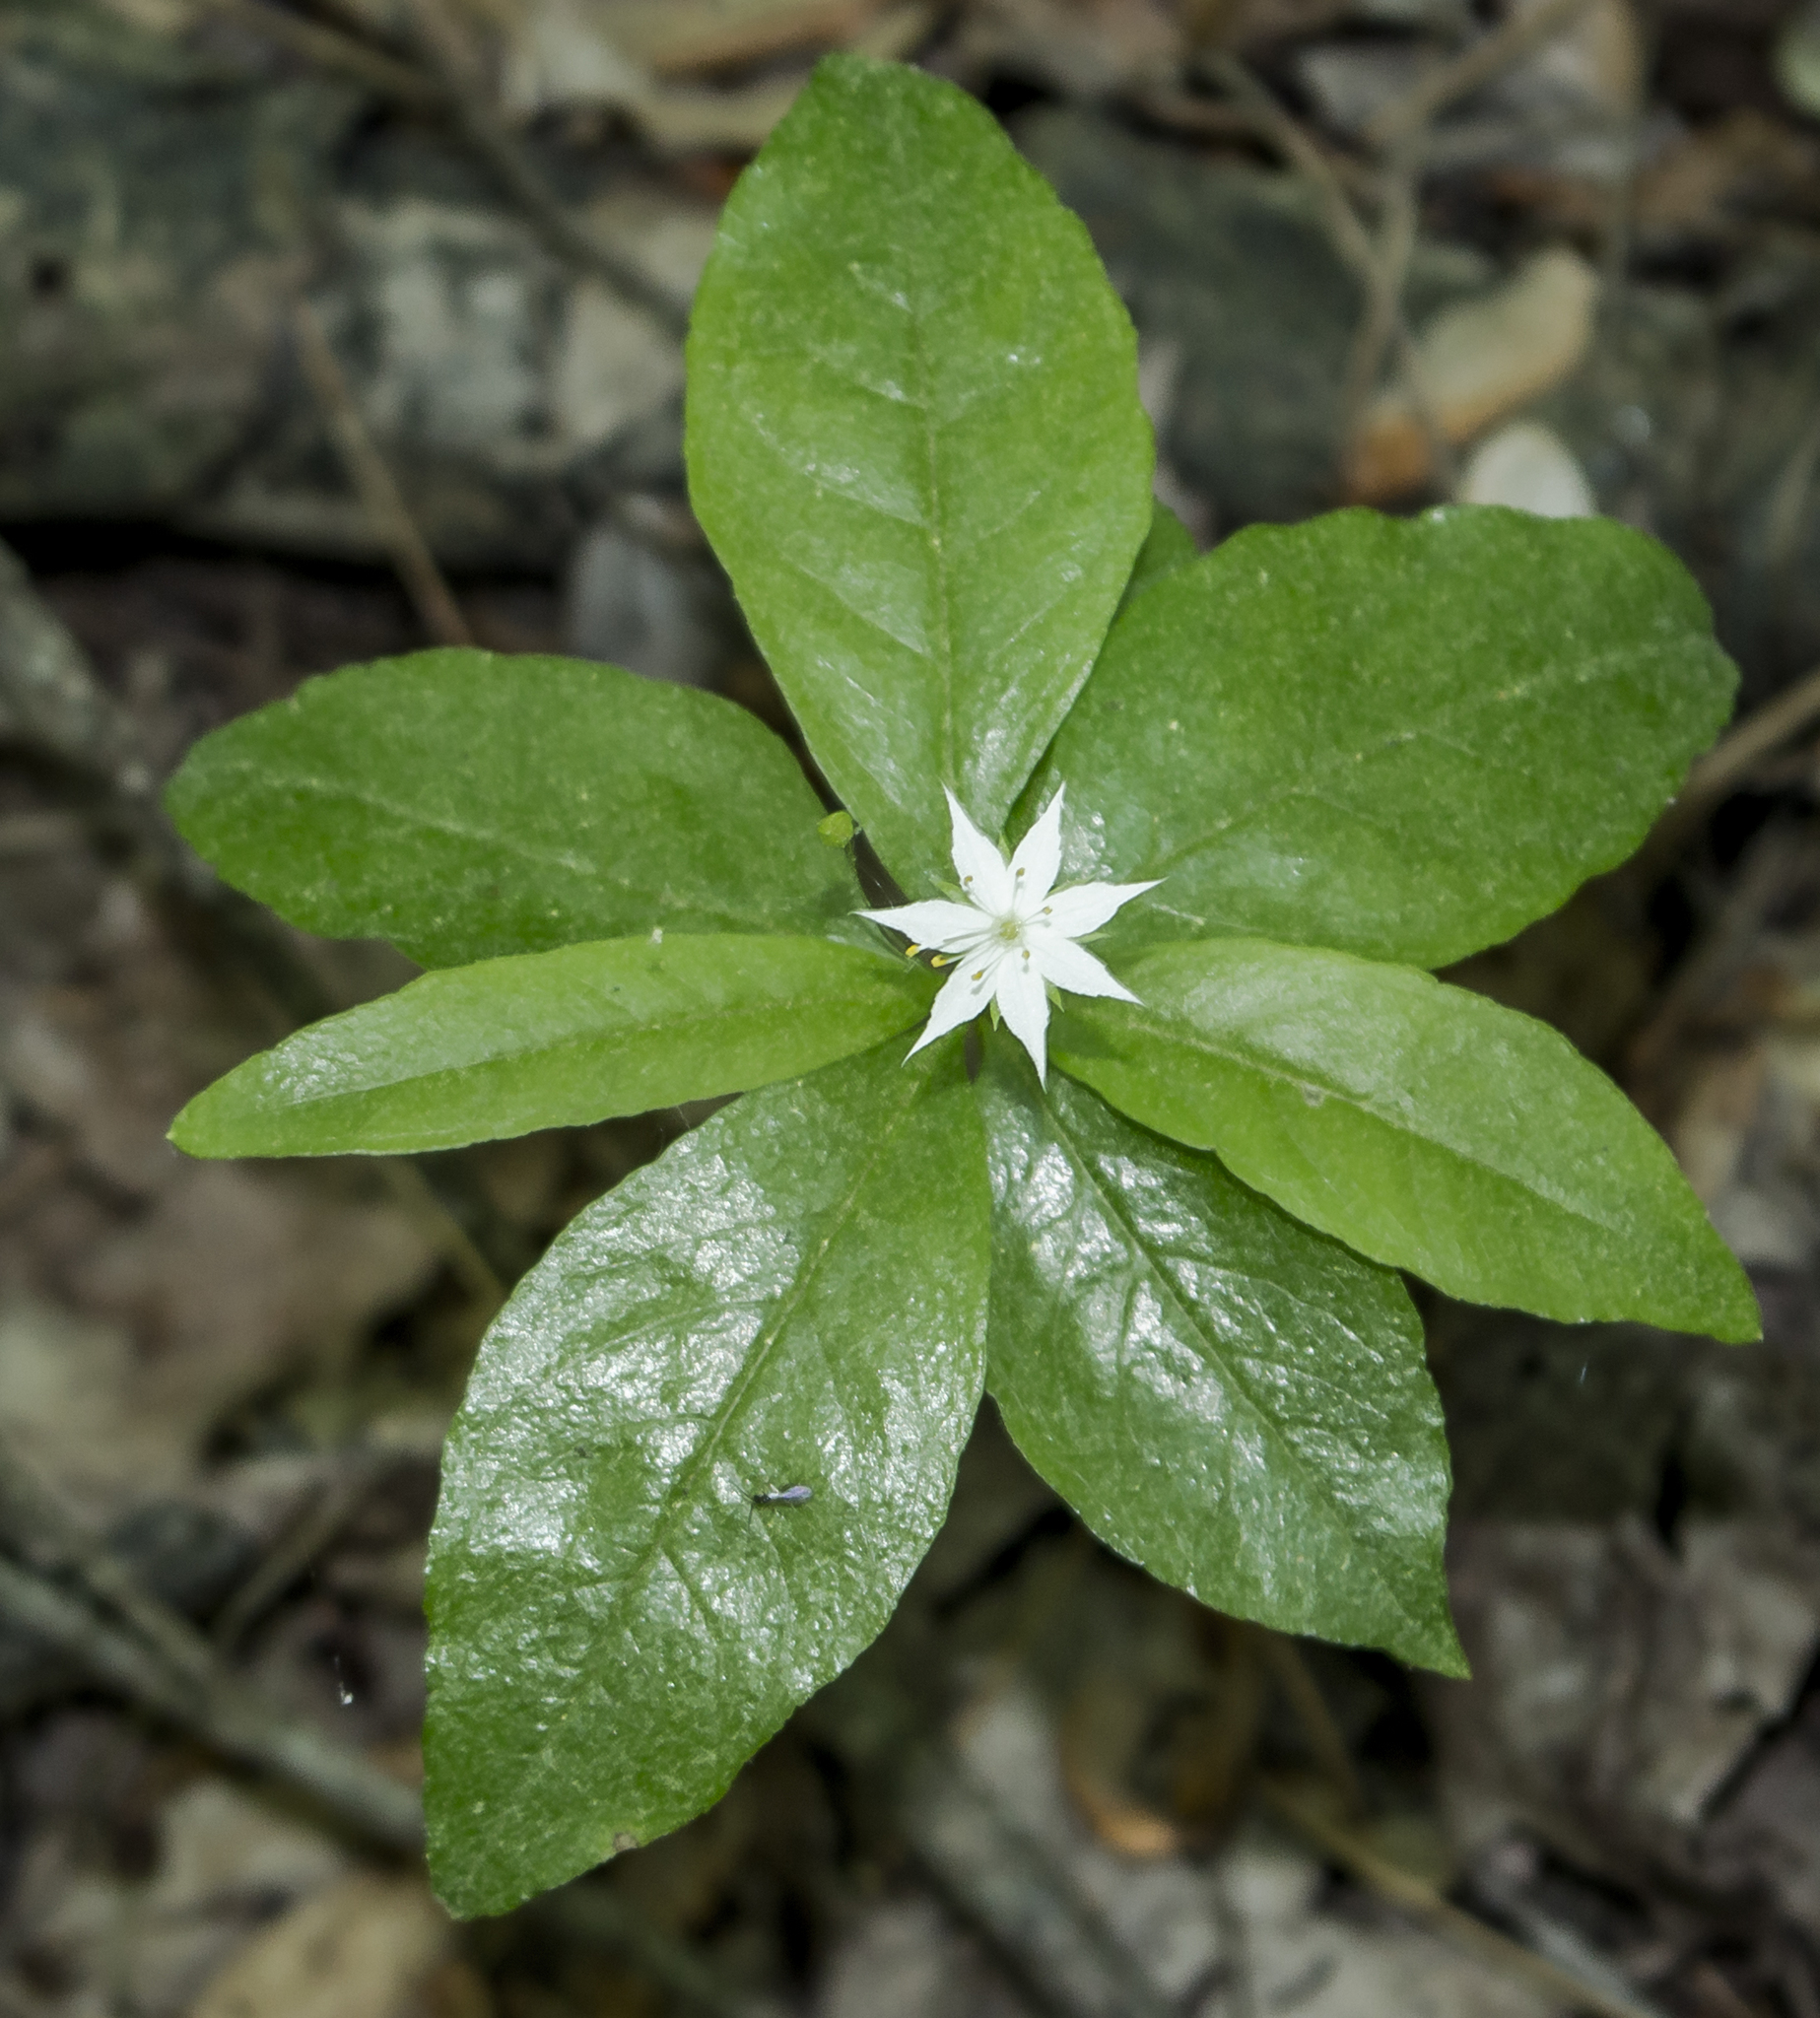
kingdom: Plantae
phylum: Tracheophyta
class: Magnoliopsida
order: Ericales
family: Primulaceae
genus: Lysimachia
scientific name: Lysimachia borealis
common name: American starflower
